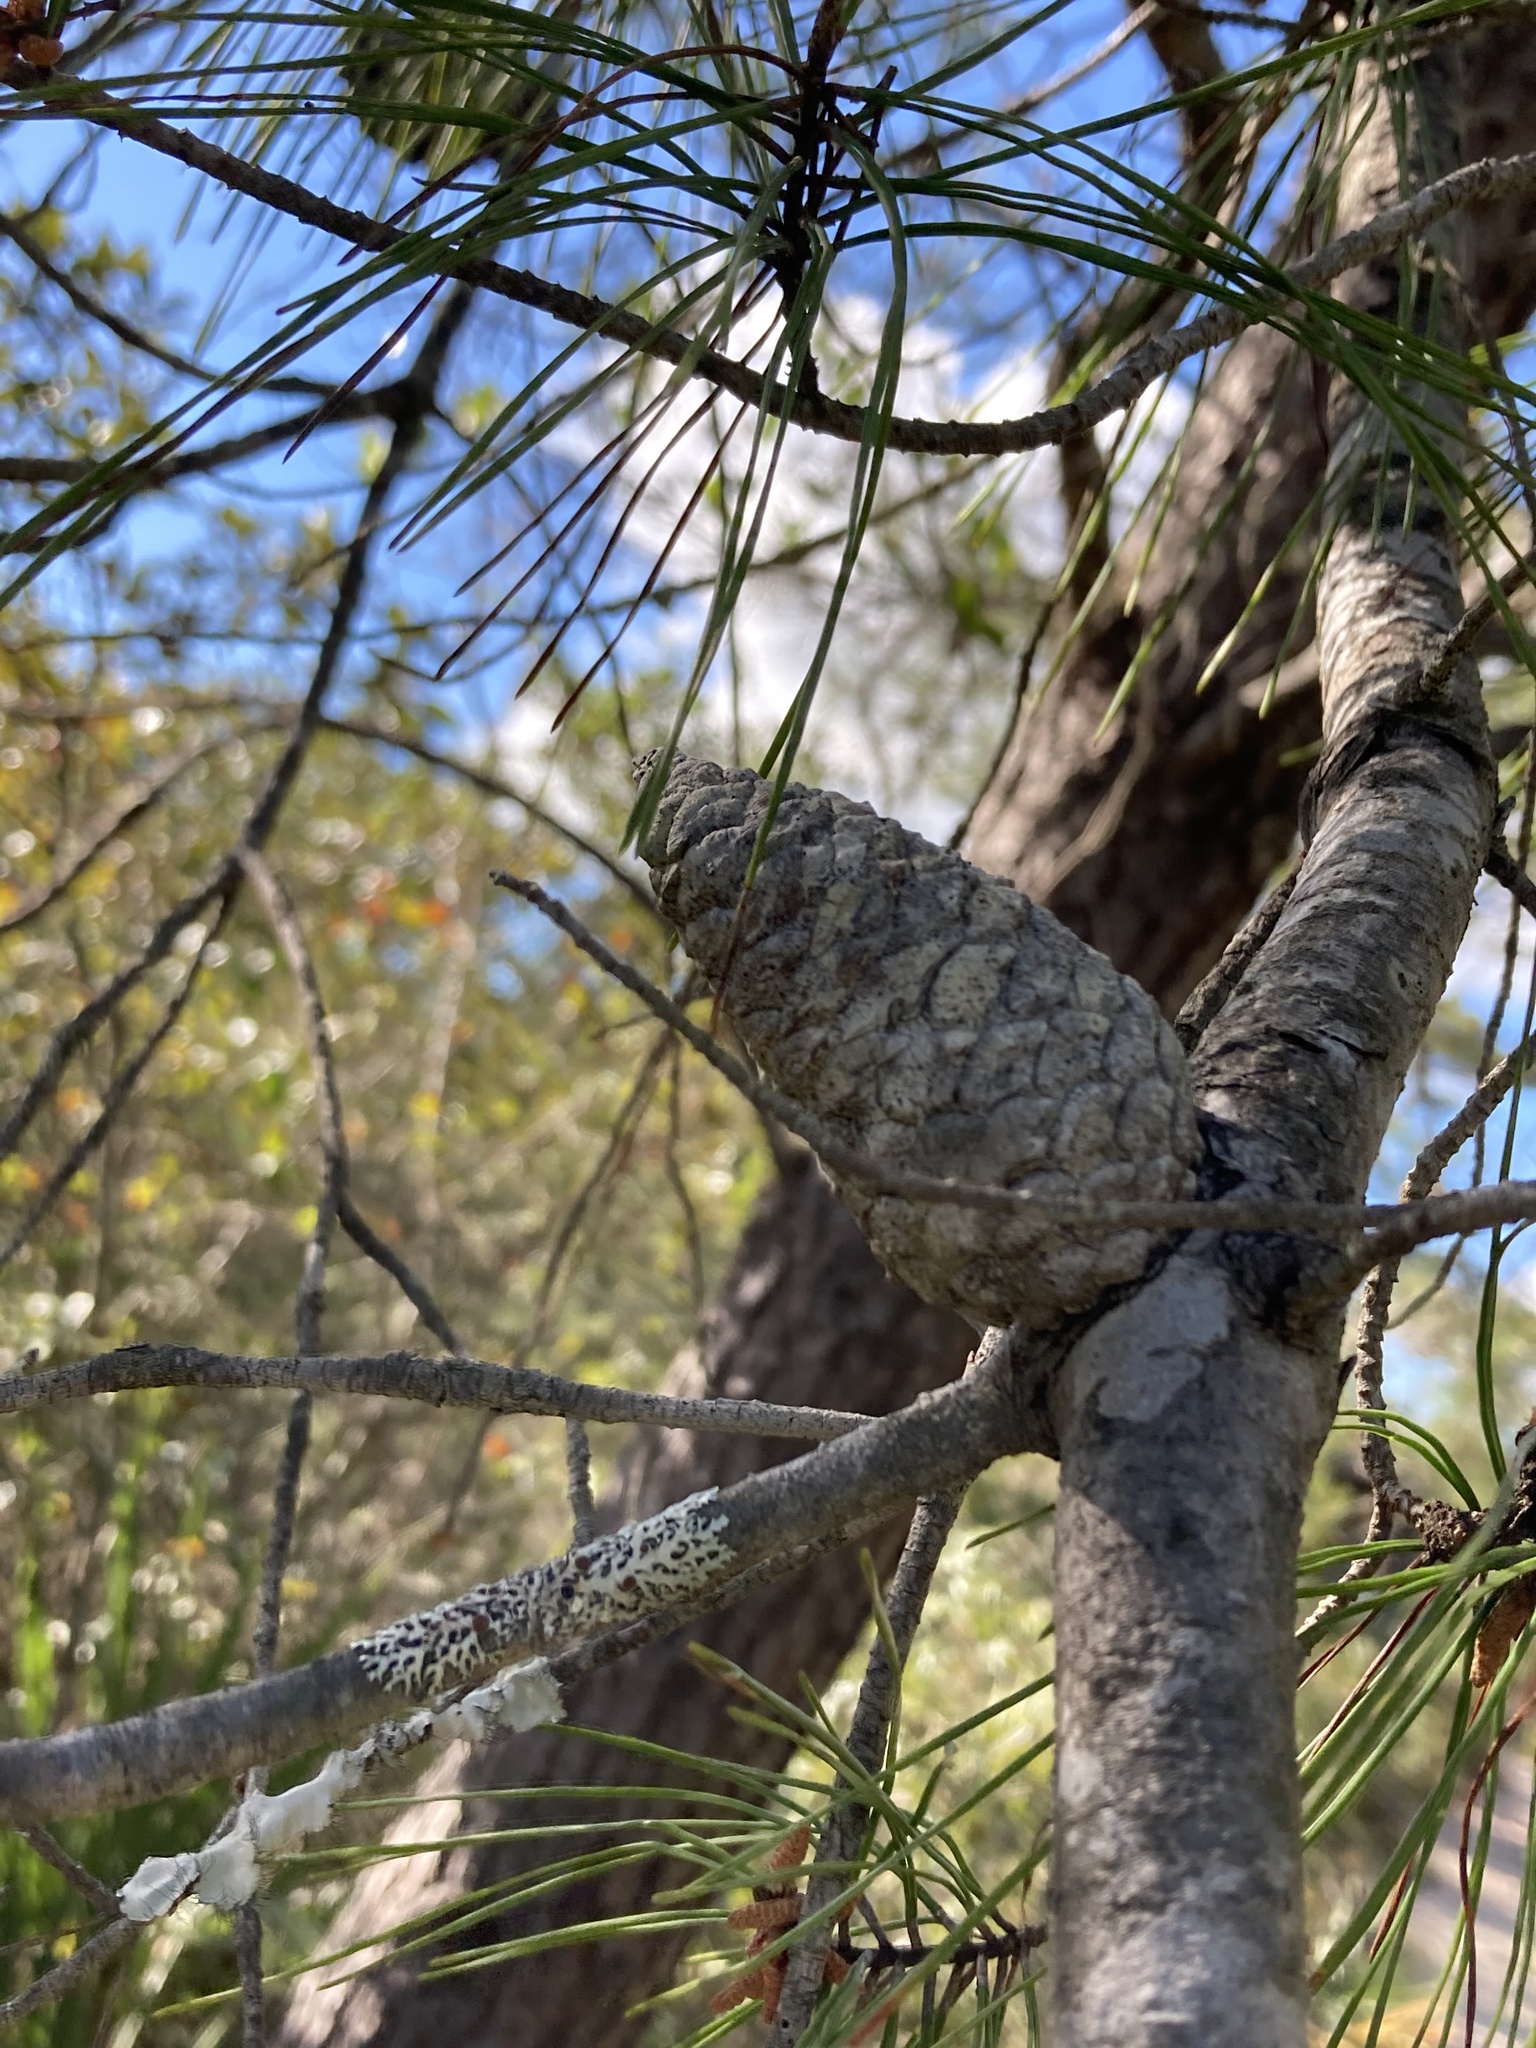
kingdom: Plantae
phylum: Tracheophyta
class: Pinopsida
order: Pinales
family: Pinaceae
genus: Pinus
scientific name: Pinus clausa
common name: Sand pine
